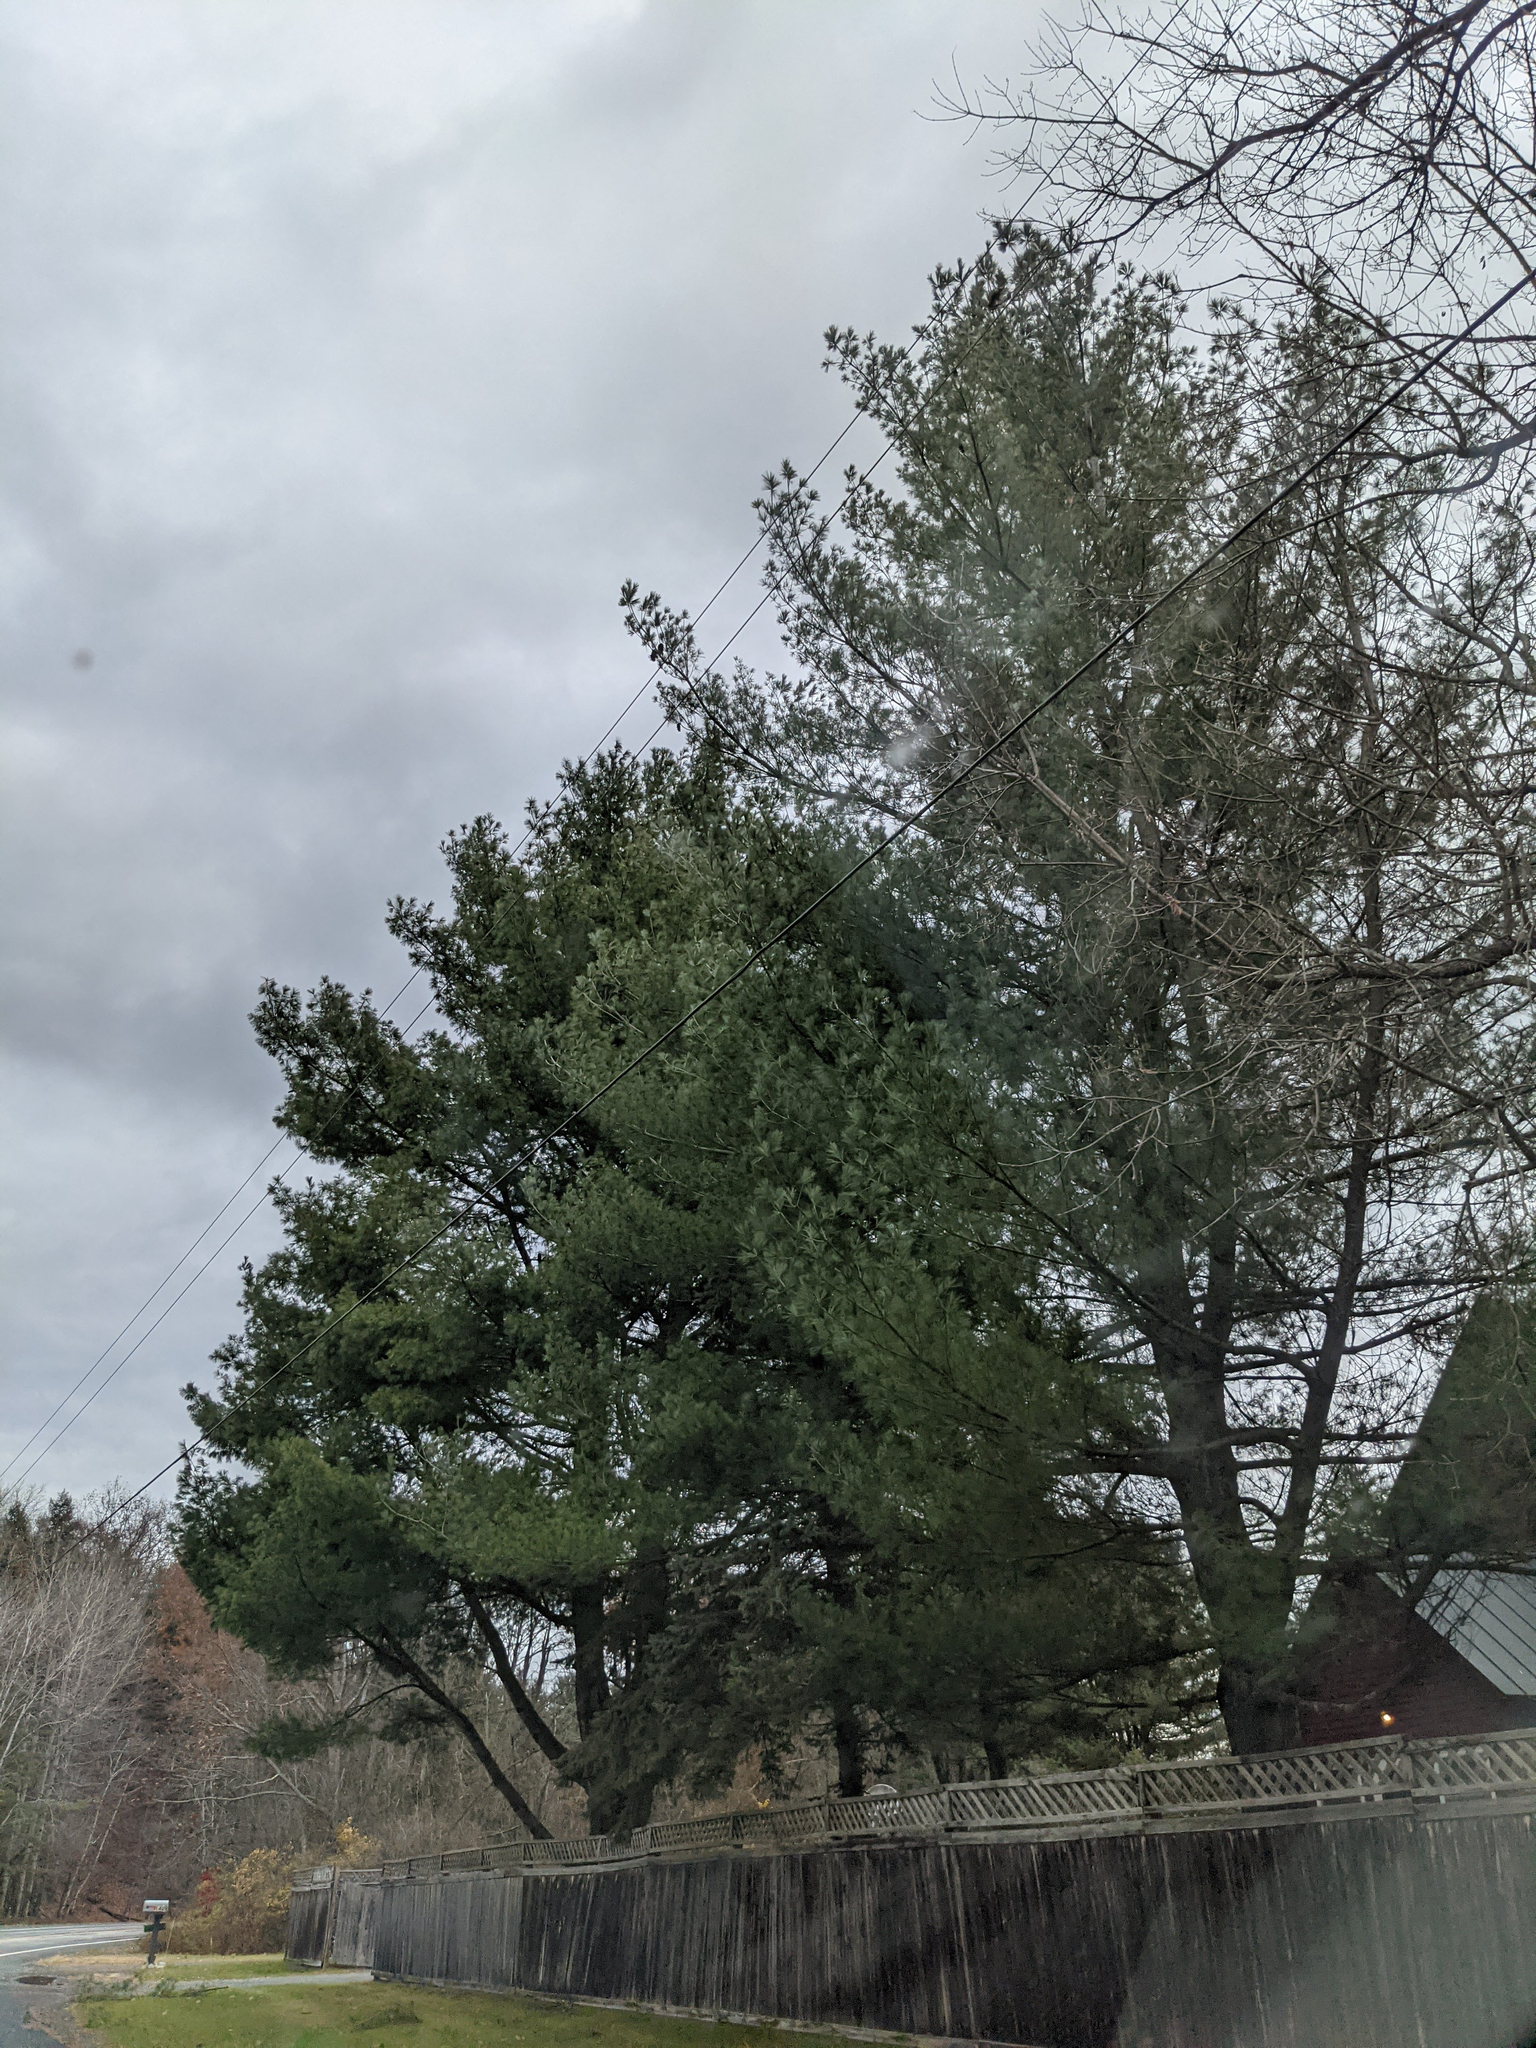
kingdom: Plantae
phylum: Tracheophyta
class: Pinopsida
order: Pinales
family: Pinaceae
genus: Pinus
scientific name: Pinus strobus
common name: Weymouth pine
